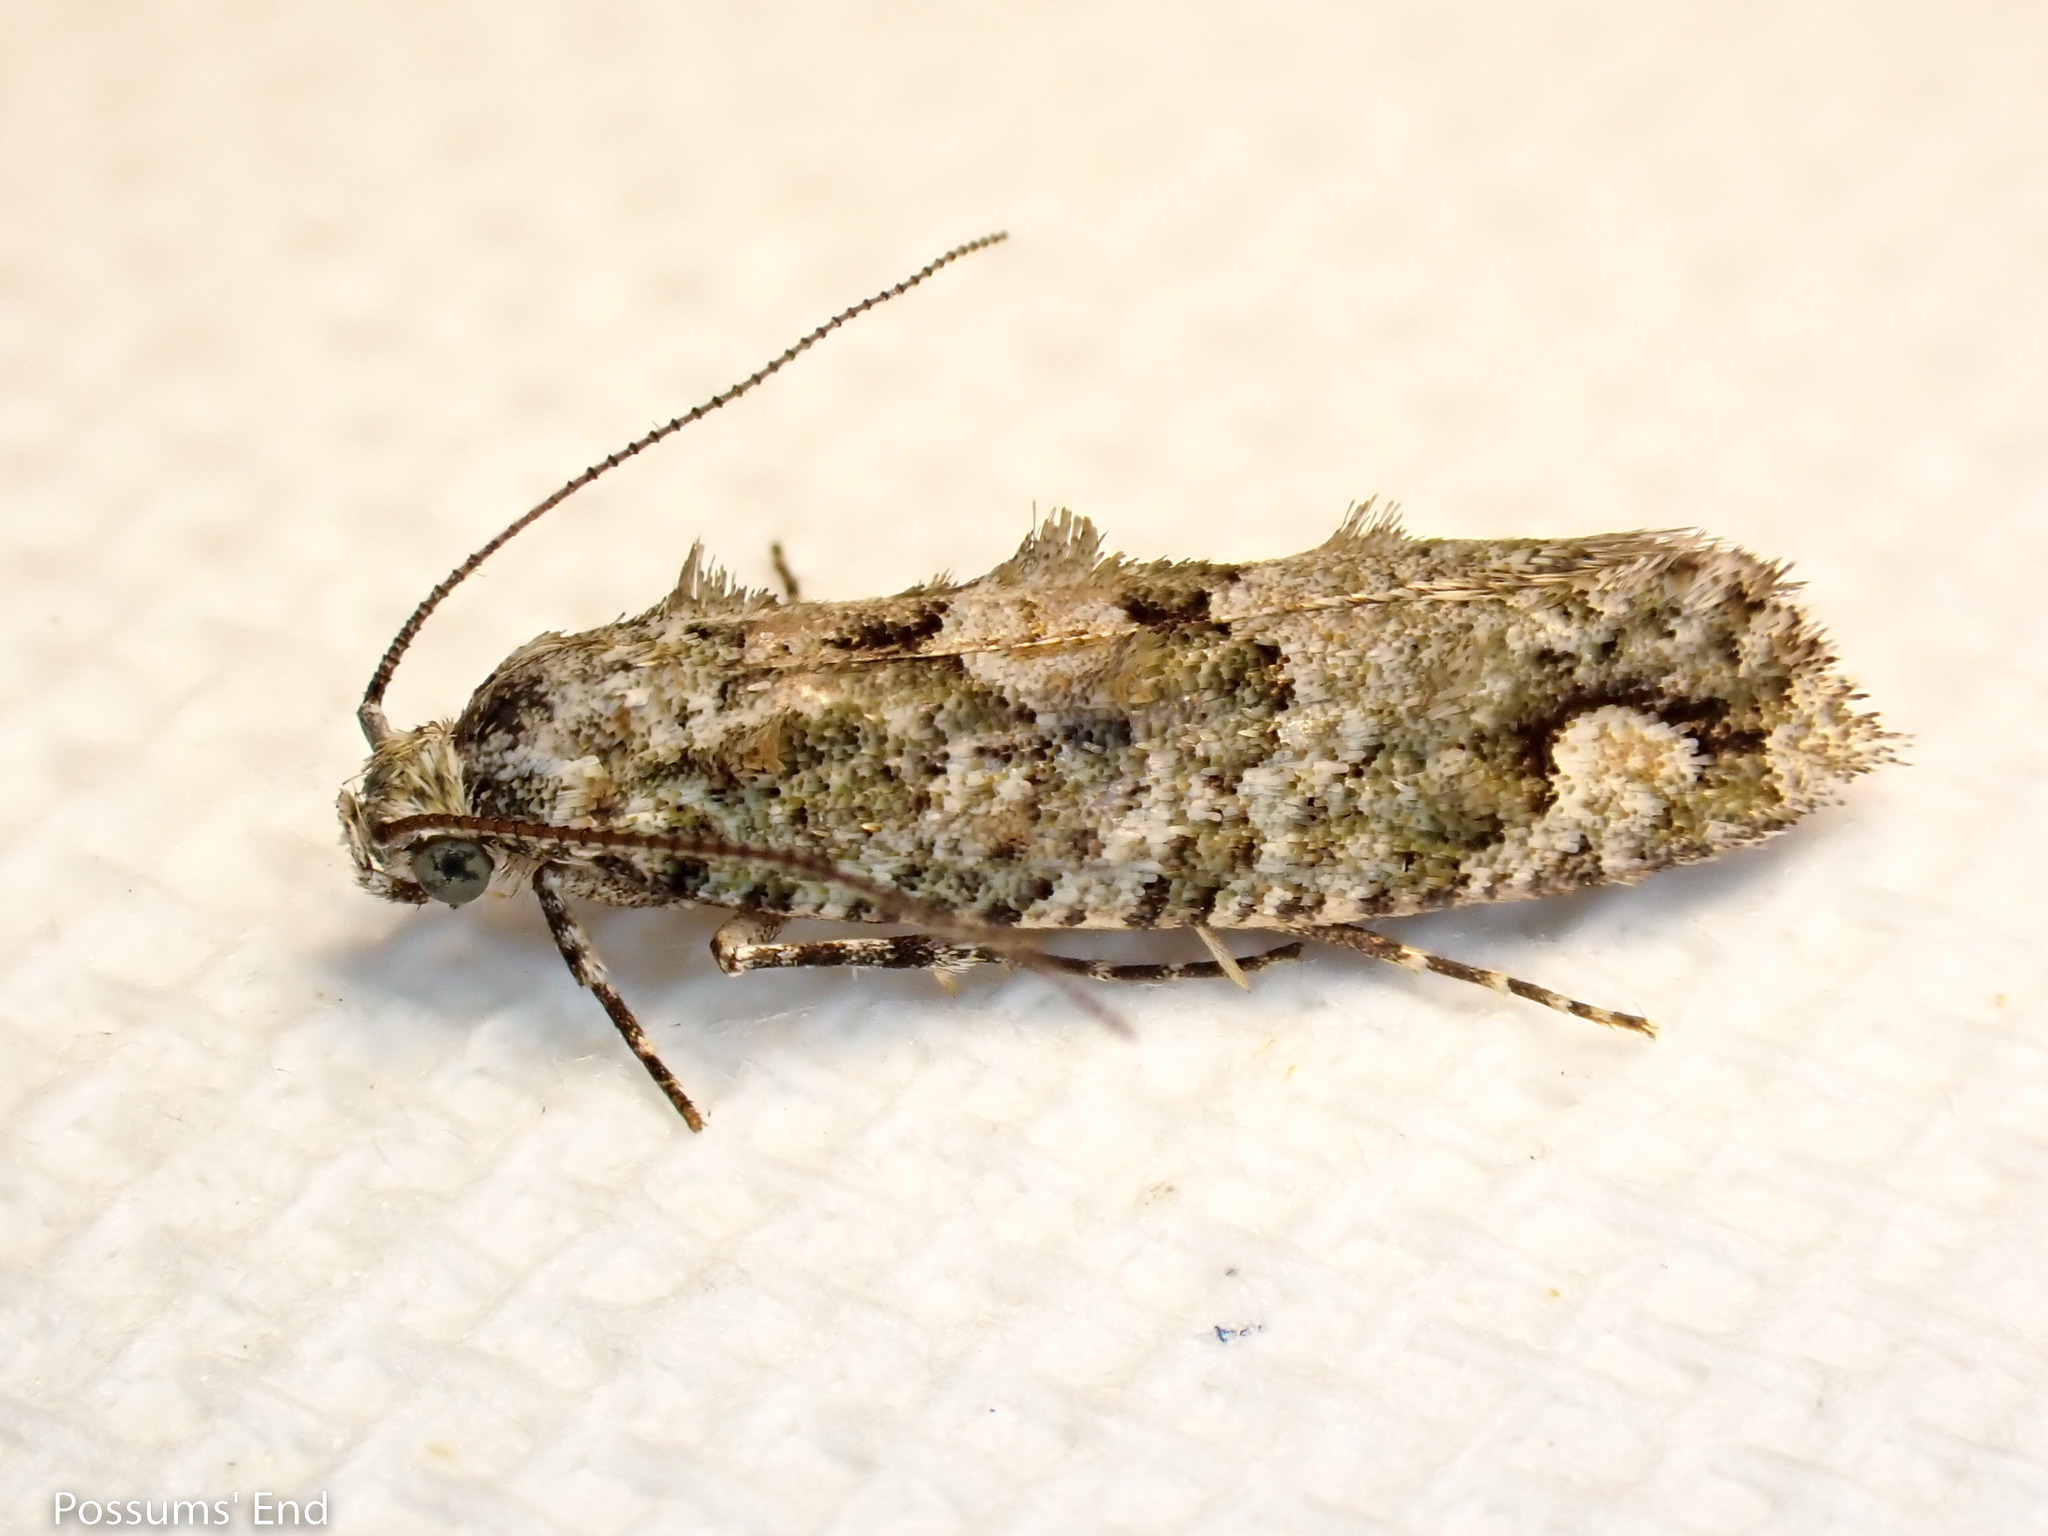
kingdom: Animalia
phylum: Arthropoda
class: Insecta
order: Lepidoptera
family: Tineidae
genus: Lysiphragma
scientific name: Lysiphragma howesii
